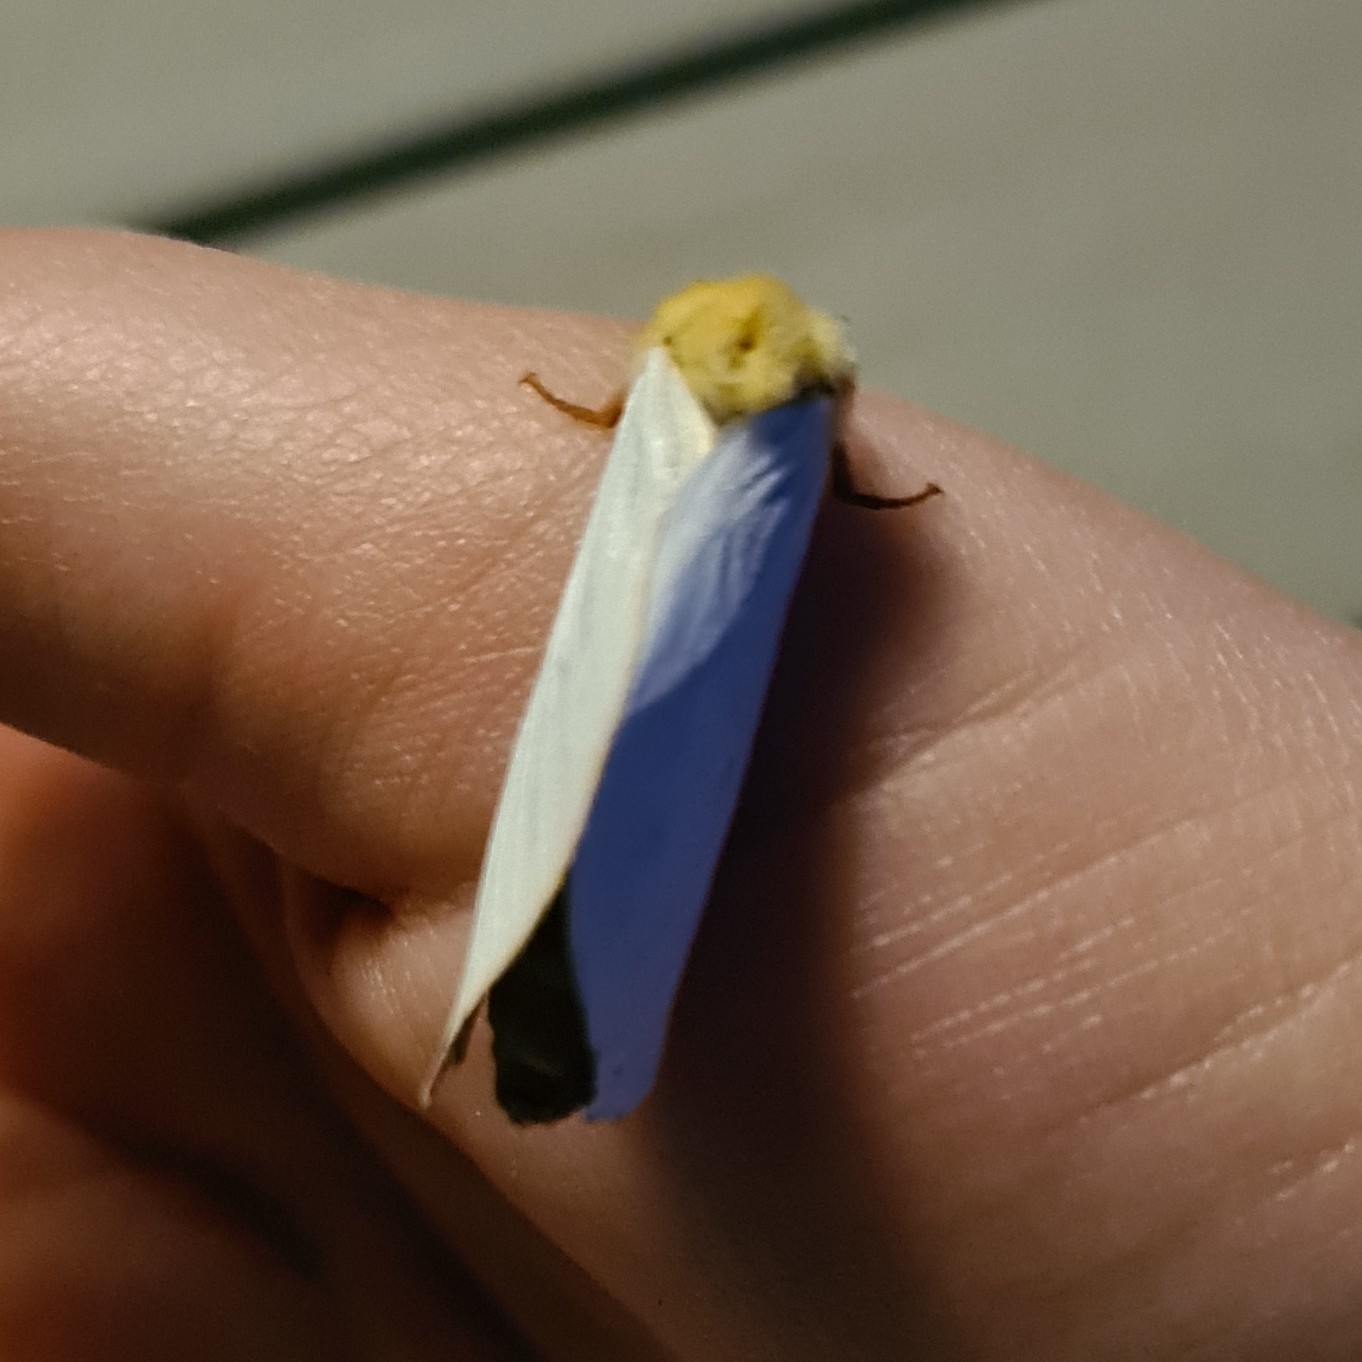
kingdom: Animalia
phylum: Arthropoda
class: Insecta
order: Lepidoptera
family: Hepialidae
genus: Hepialus
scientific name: Hepialus humuli
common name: Ghost moth
